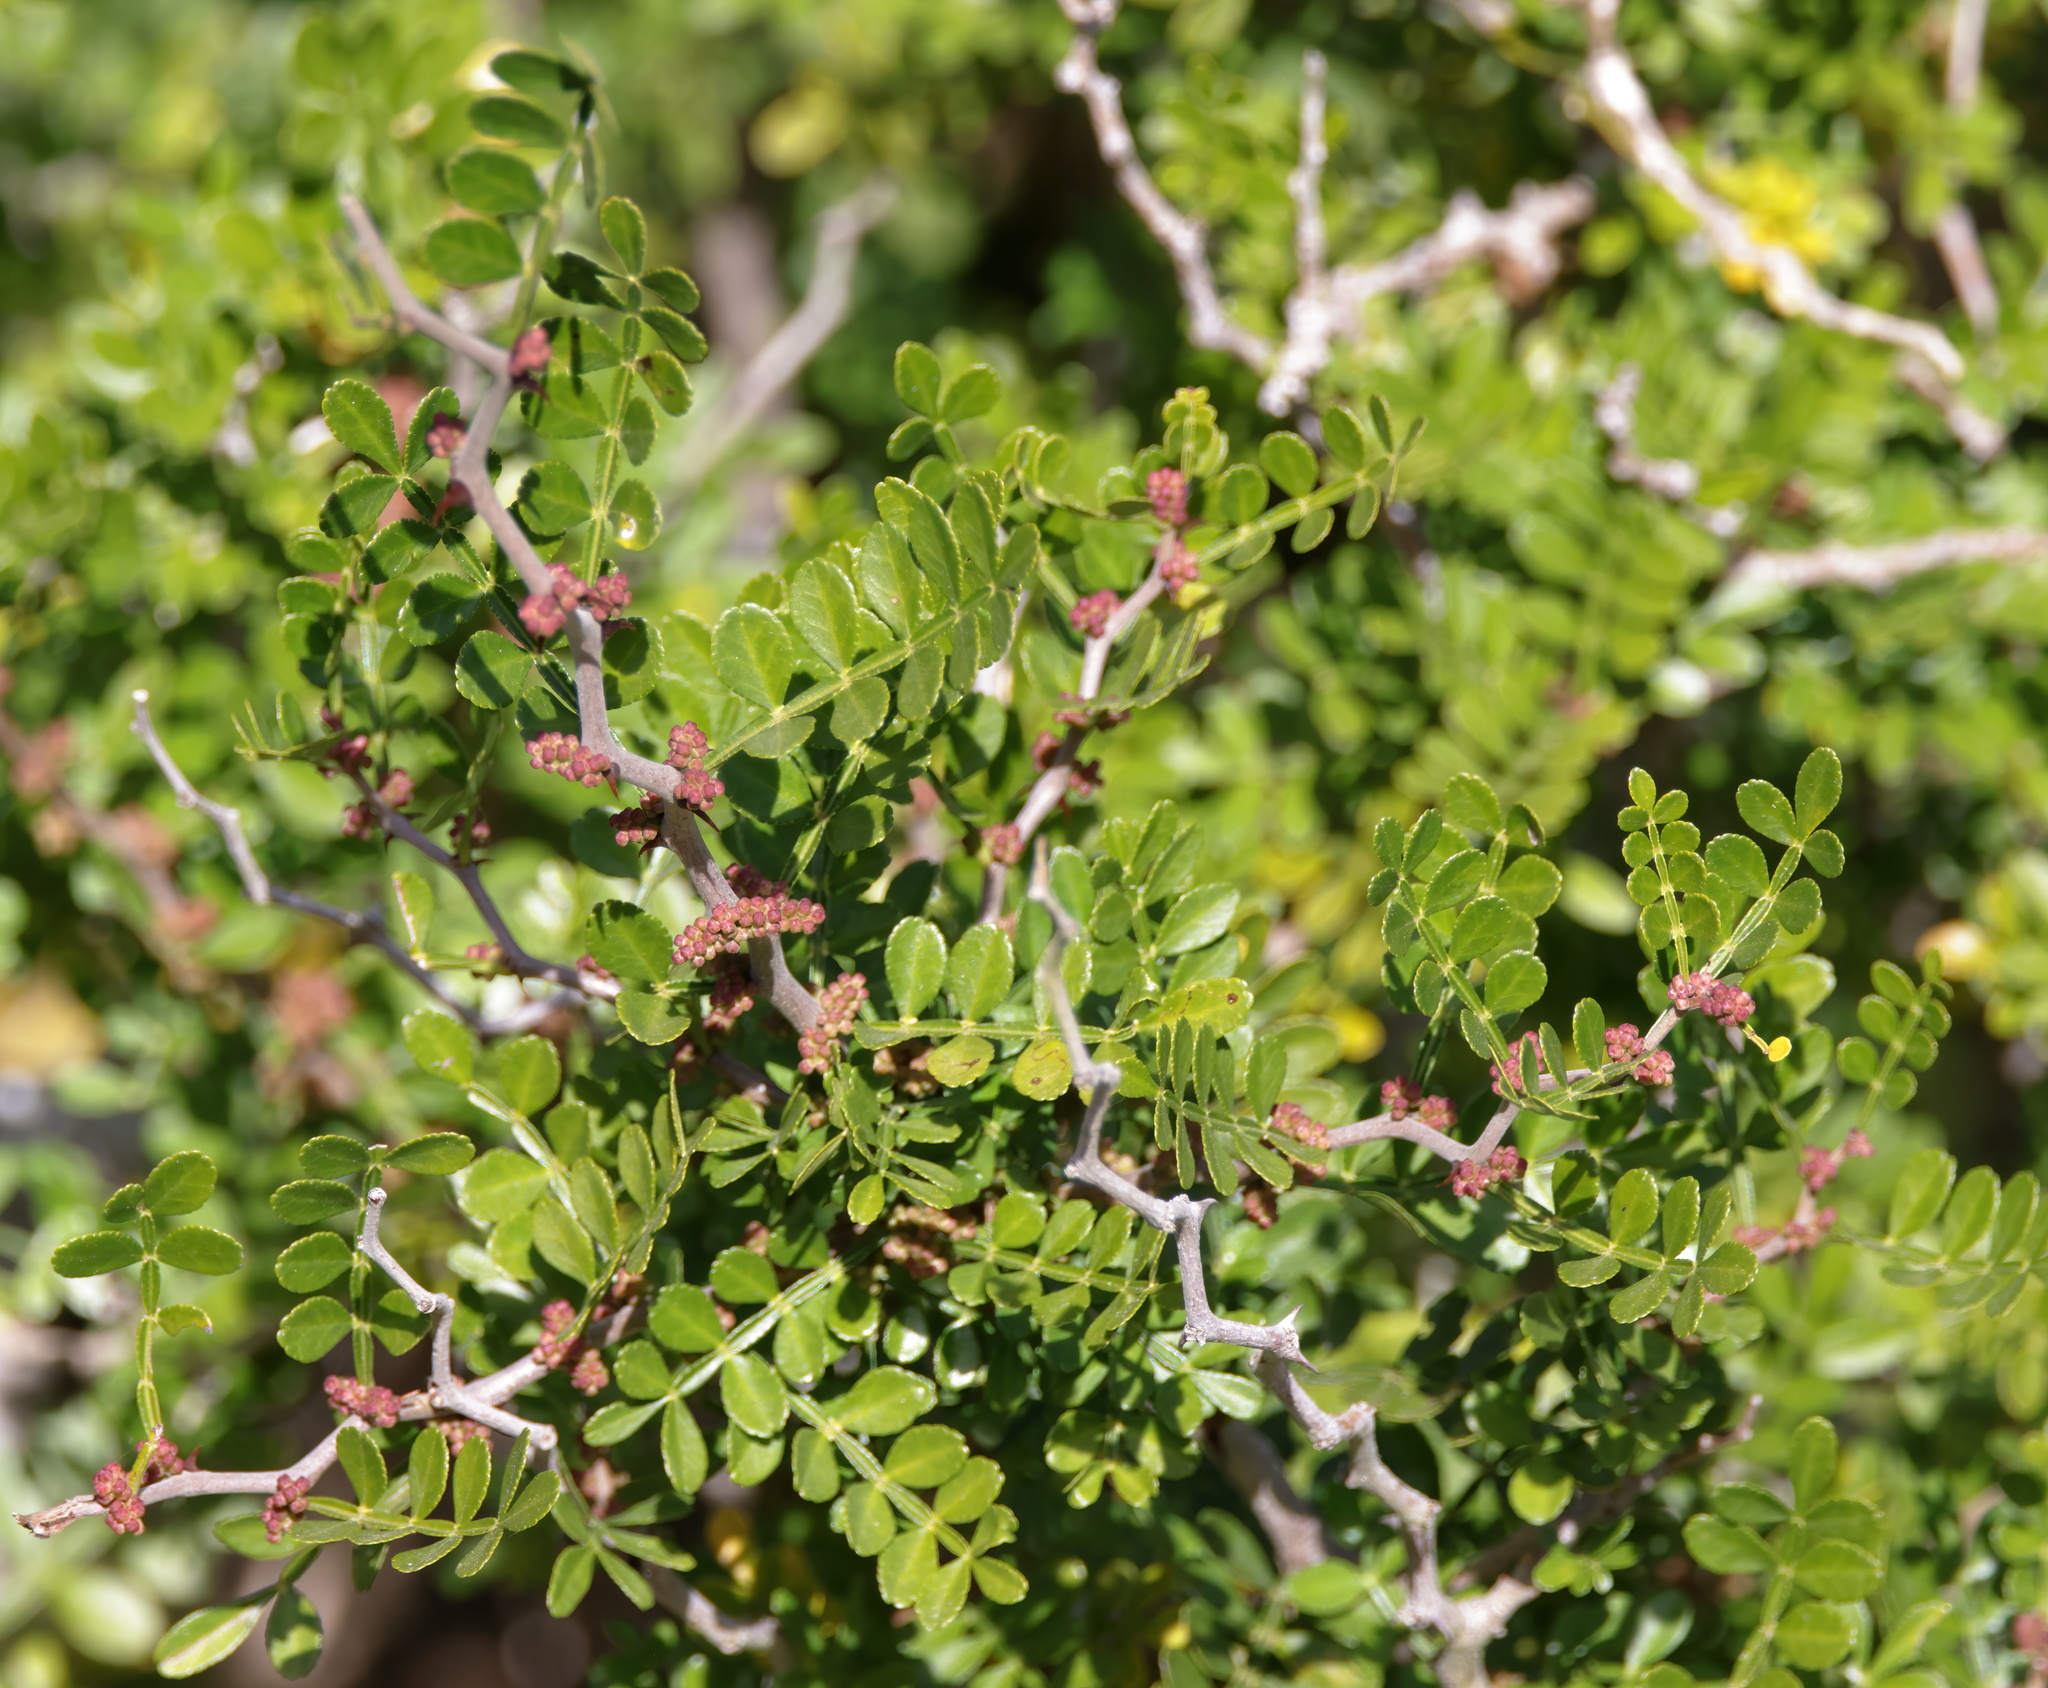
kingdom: Plantae
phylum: Tracheophyta
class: Magnoliopsida
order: Sapindales
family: Rutaceae
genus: Zanthoxylum
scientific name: Zanthoxylum fagara
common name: Lime prickly-ash
